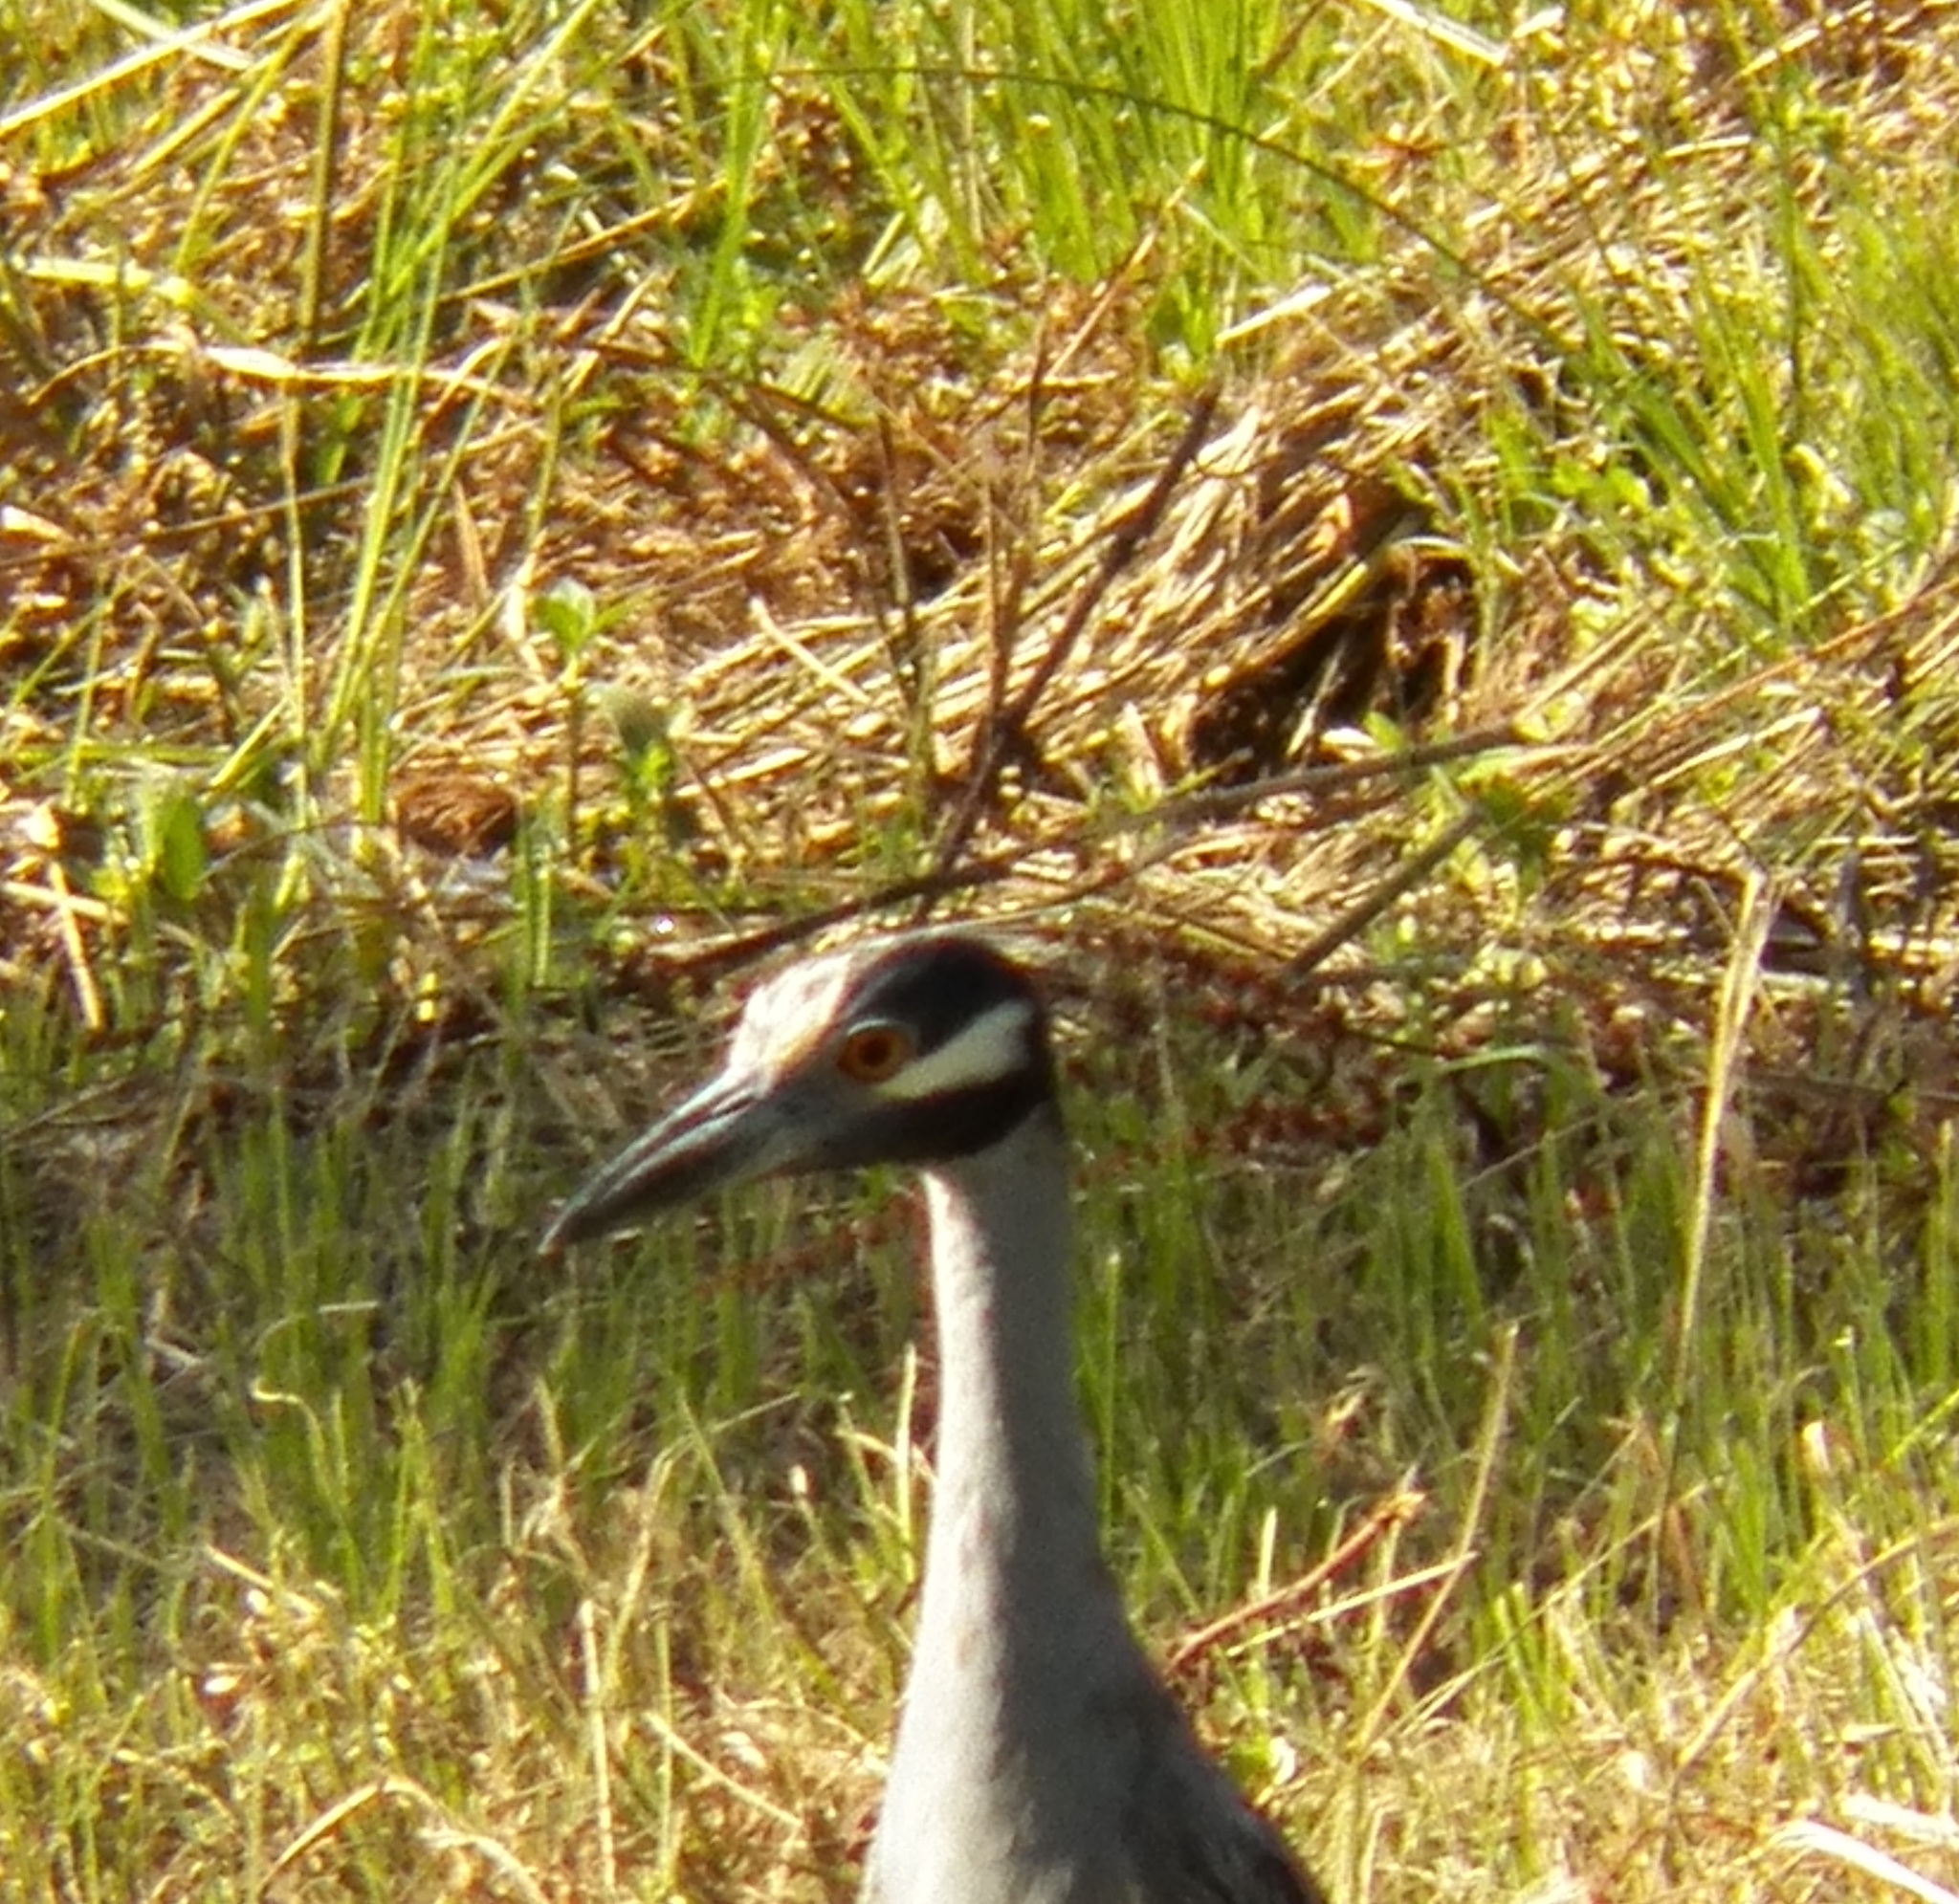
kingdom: Animalia
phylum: Chordata
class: Aves
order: Pelecaniformes
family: Ardeidae
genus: Nyctanassa
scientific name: Nyctanassa violacea
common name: Yellow-crowned night heron
